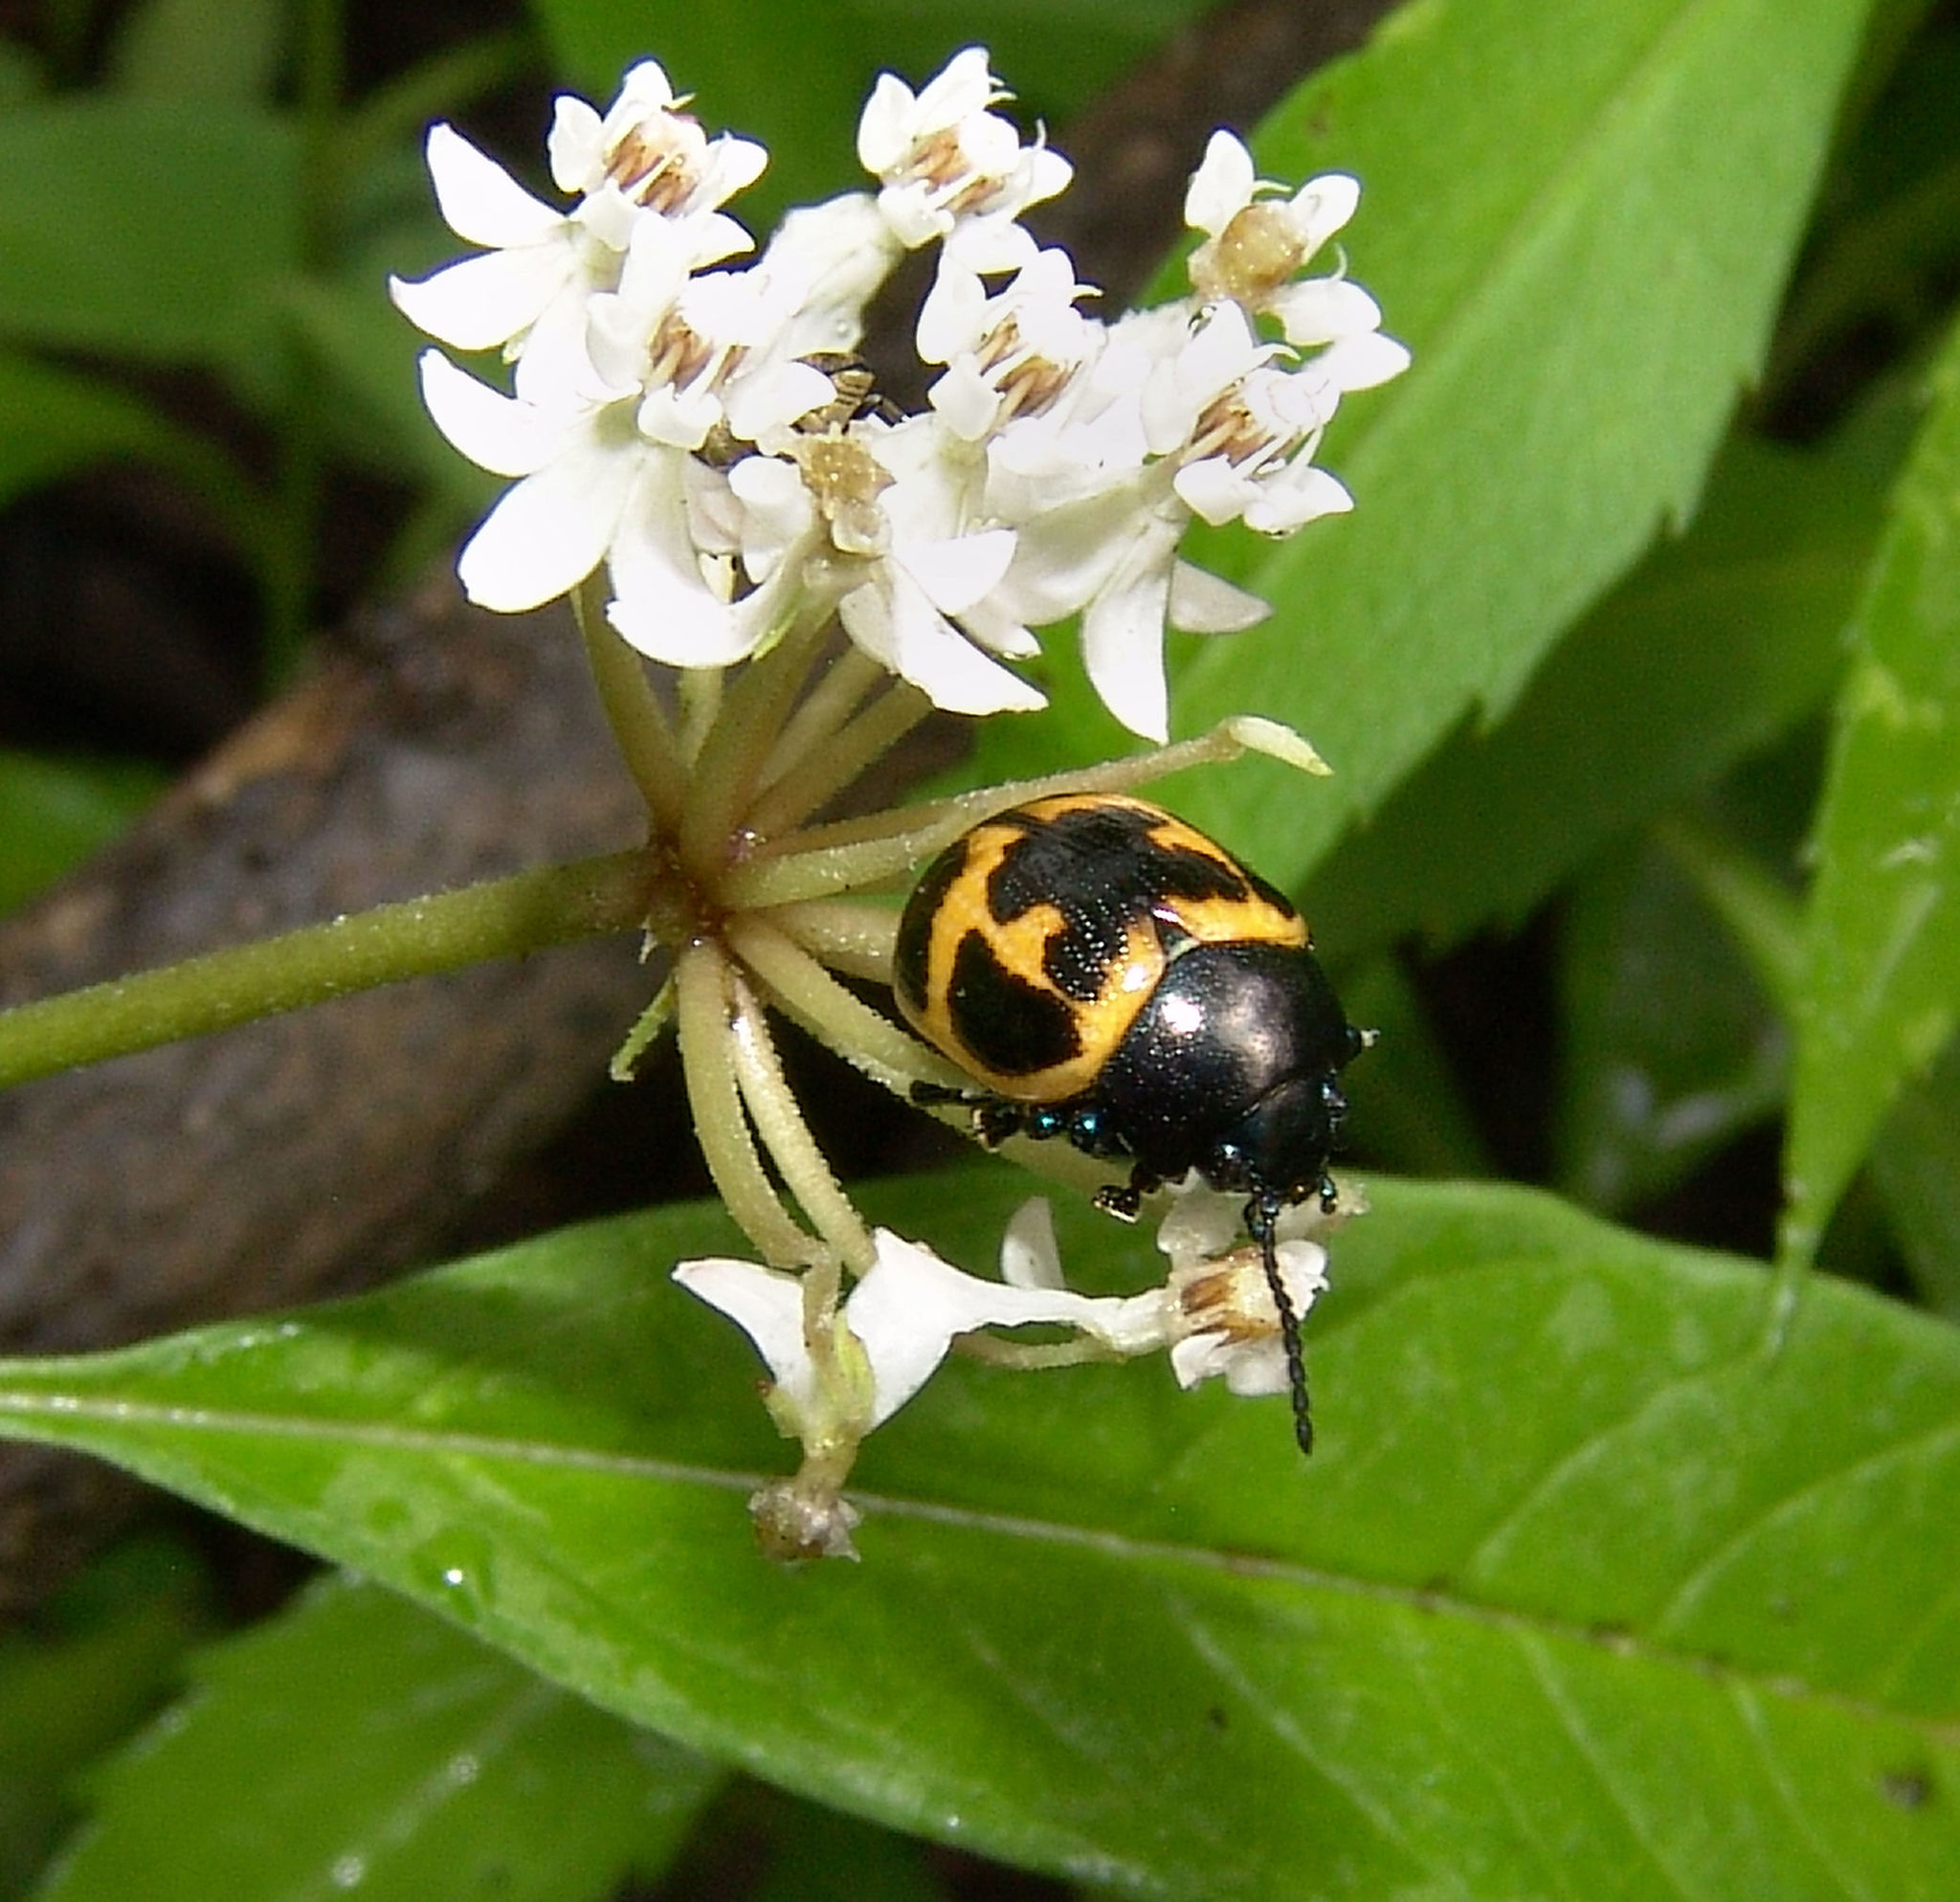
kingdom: Animalia
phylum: Arthropoda
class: Insecta
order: Coleoptera
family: Chrysomelidae
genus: Labidomera
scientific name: Labidomera clivicollis
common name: Swamp milkweed leaf beetle
